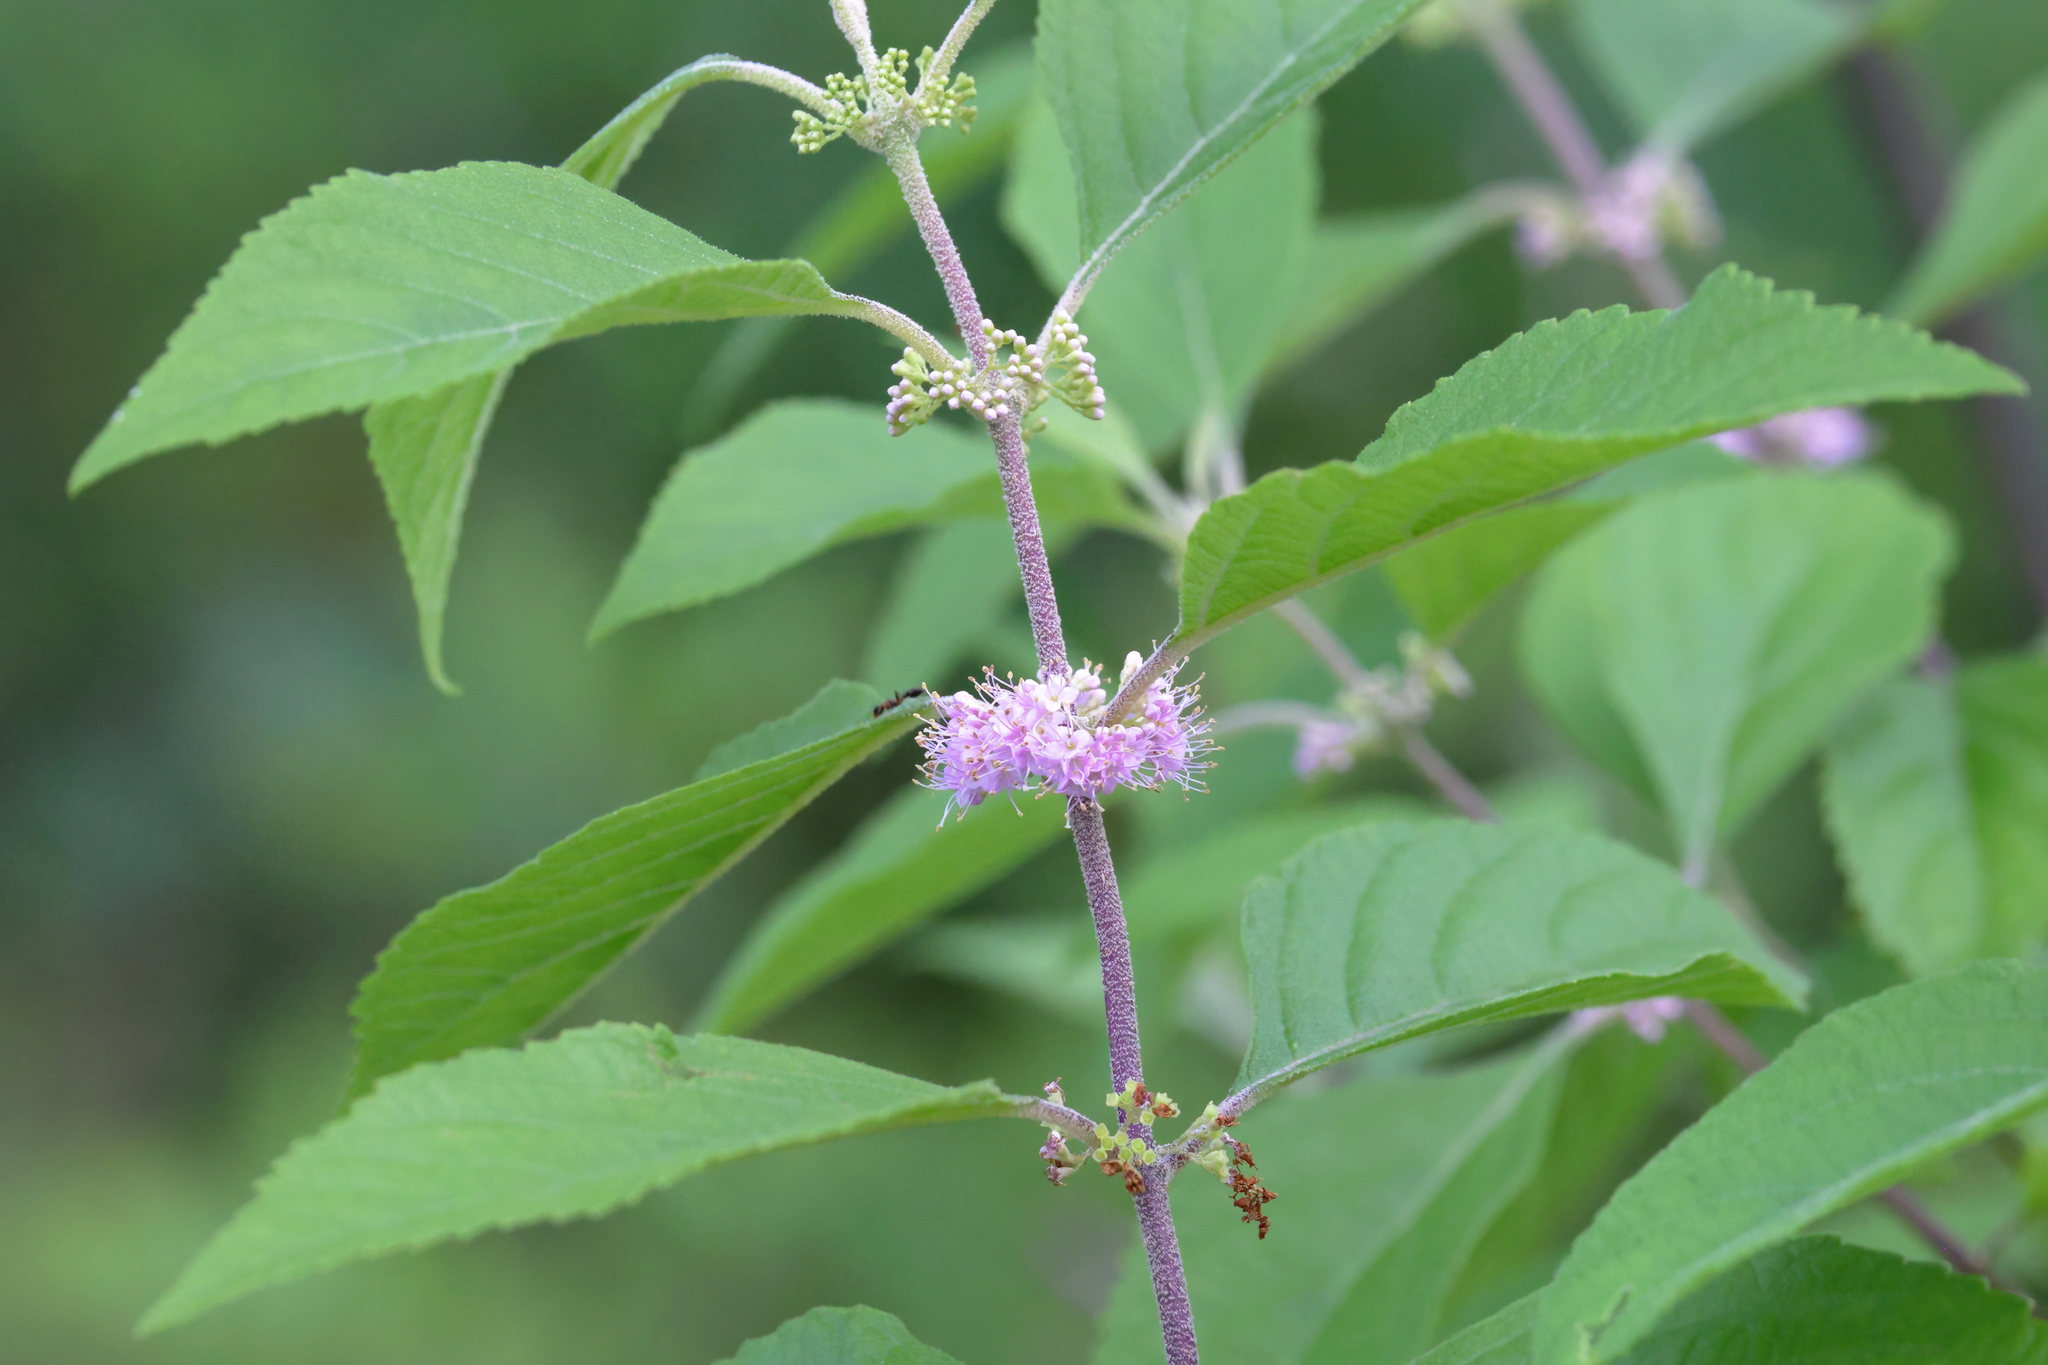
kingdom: Plantae
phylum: Tracheophyta
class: Magnoliopsida
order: Lamiales
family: Lamiaceae
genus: Callicarpa
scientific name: Callicarpa americana
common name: American beautyberry
